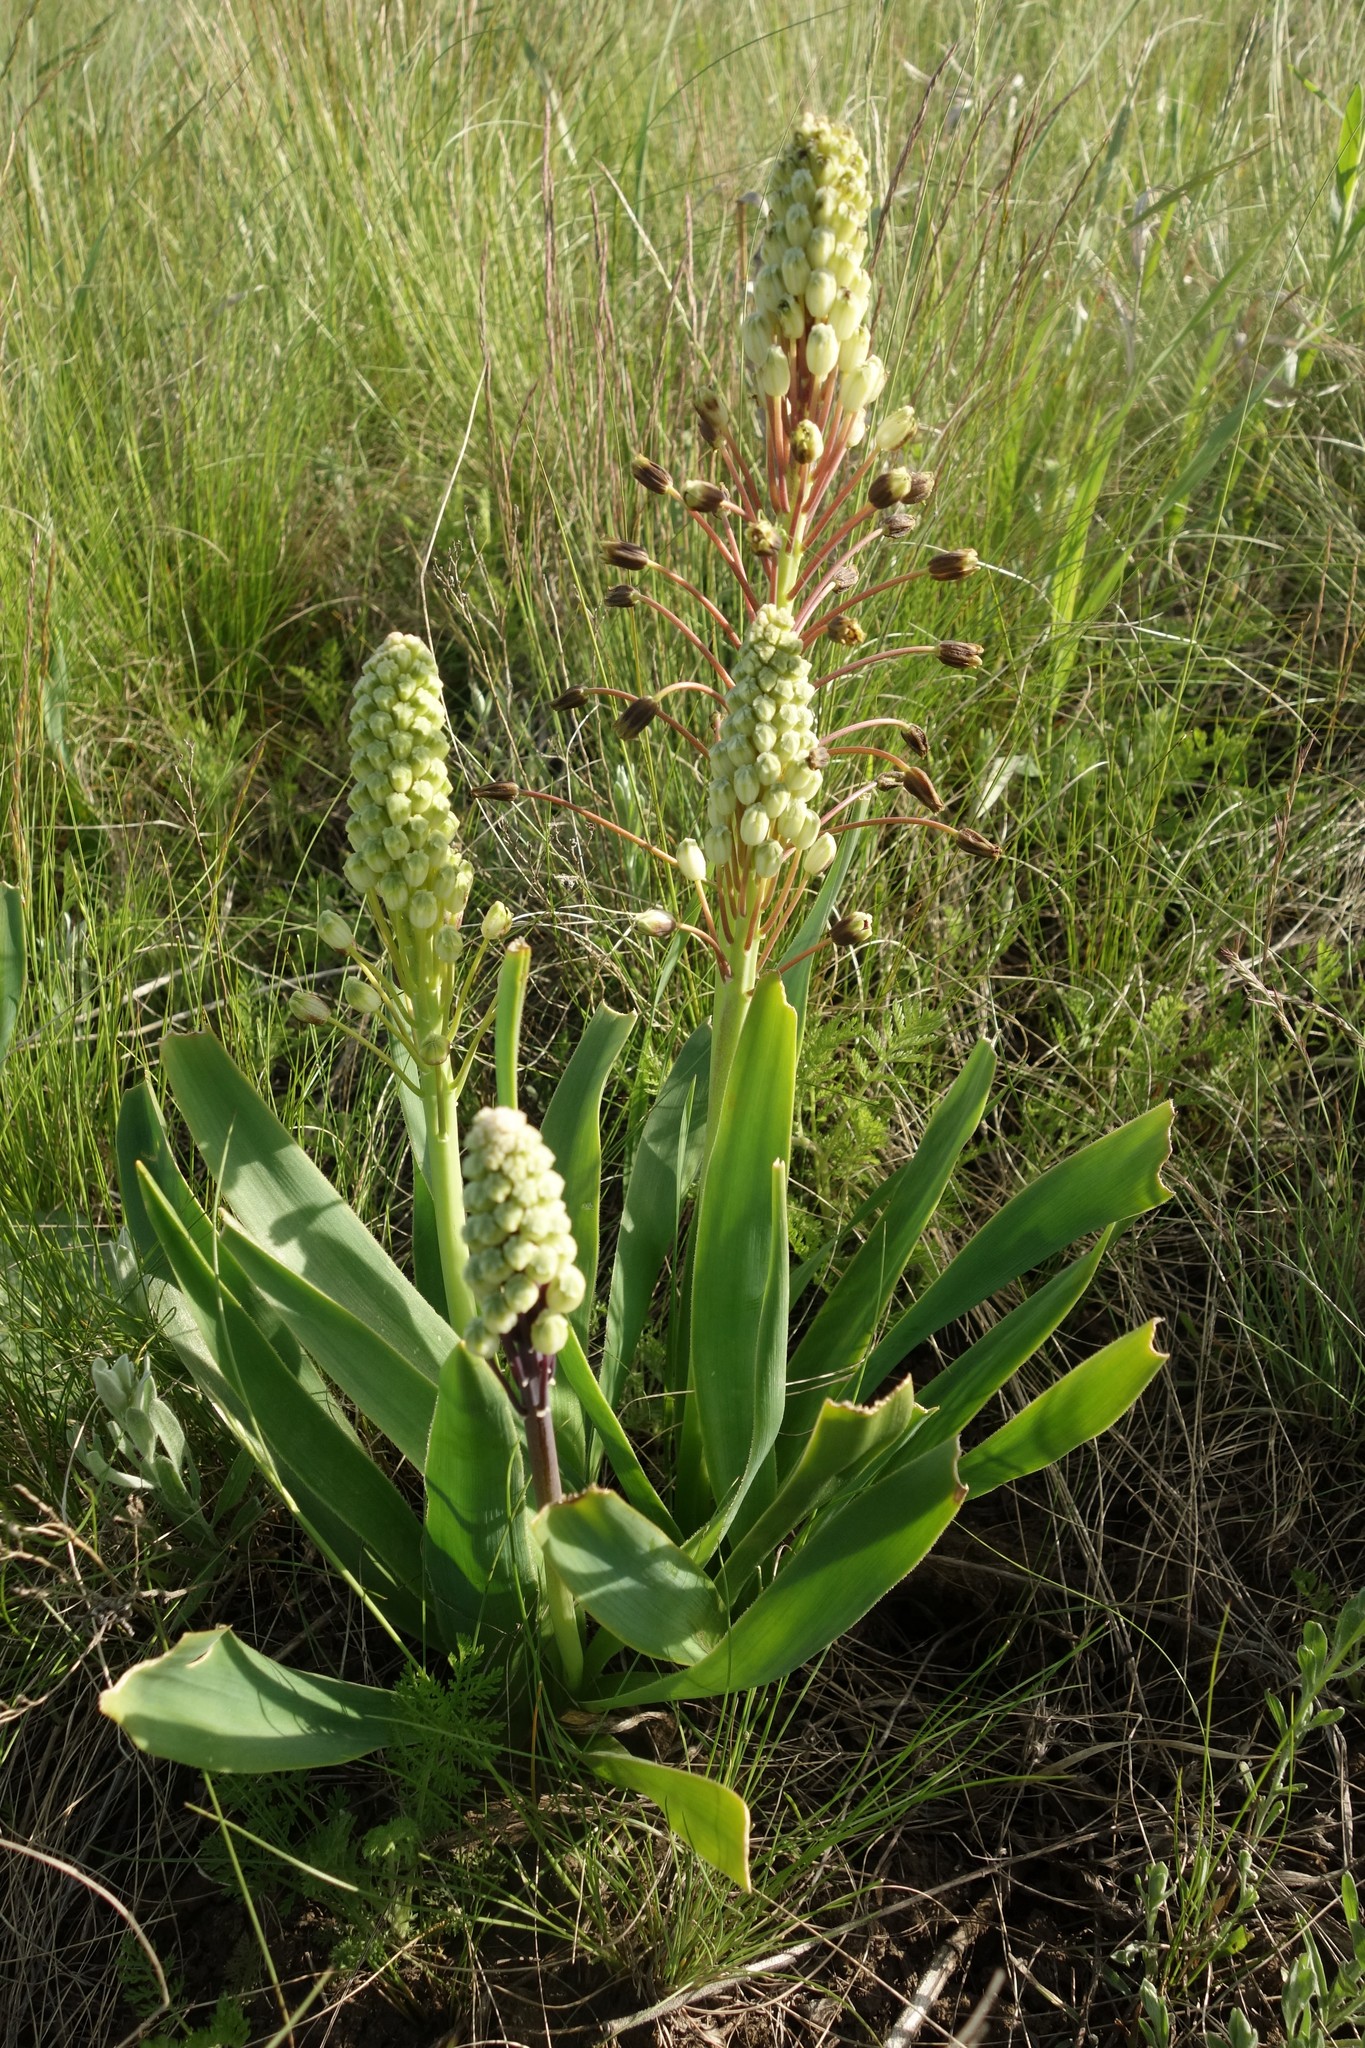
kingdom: Plantae
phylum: Tracheophyta
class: Liliopsida
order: Asparagales
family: Asparagaceae
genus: Bellevalia
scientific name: Bellevalia speciosa
